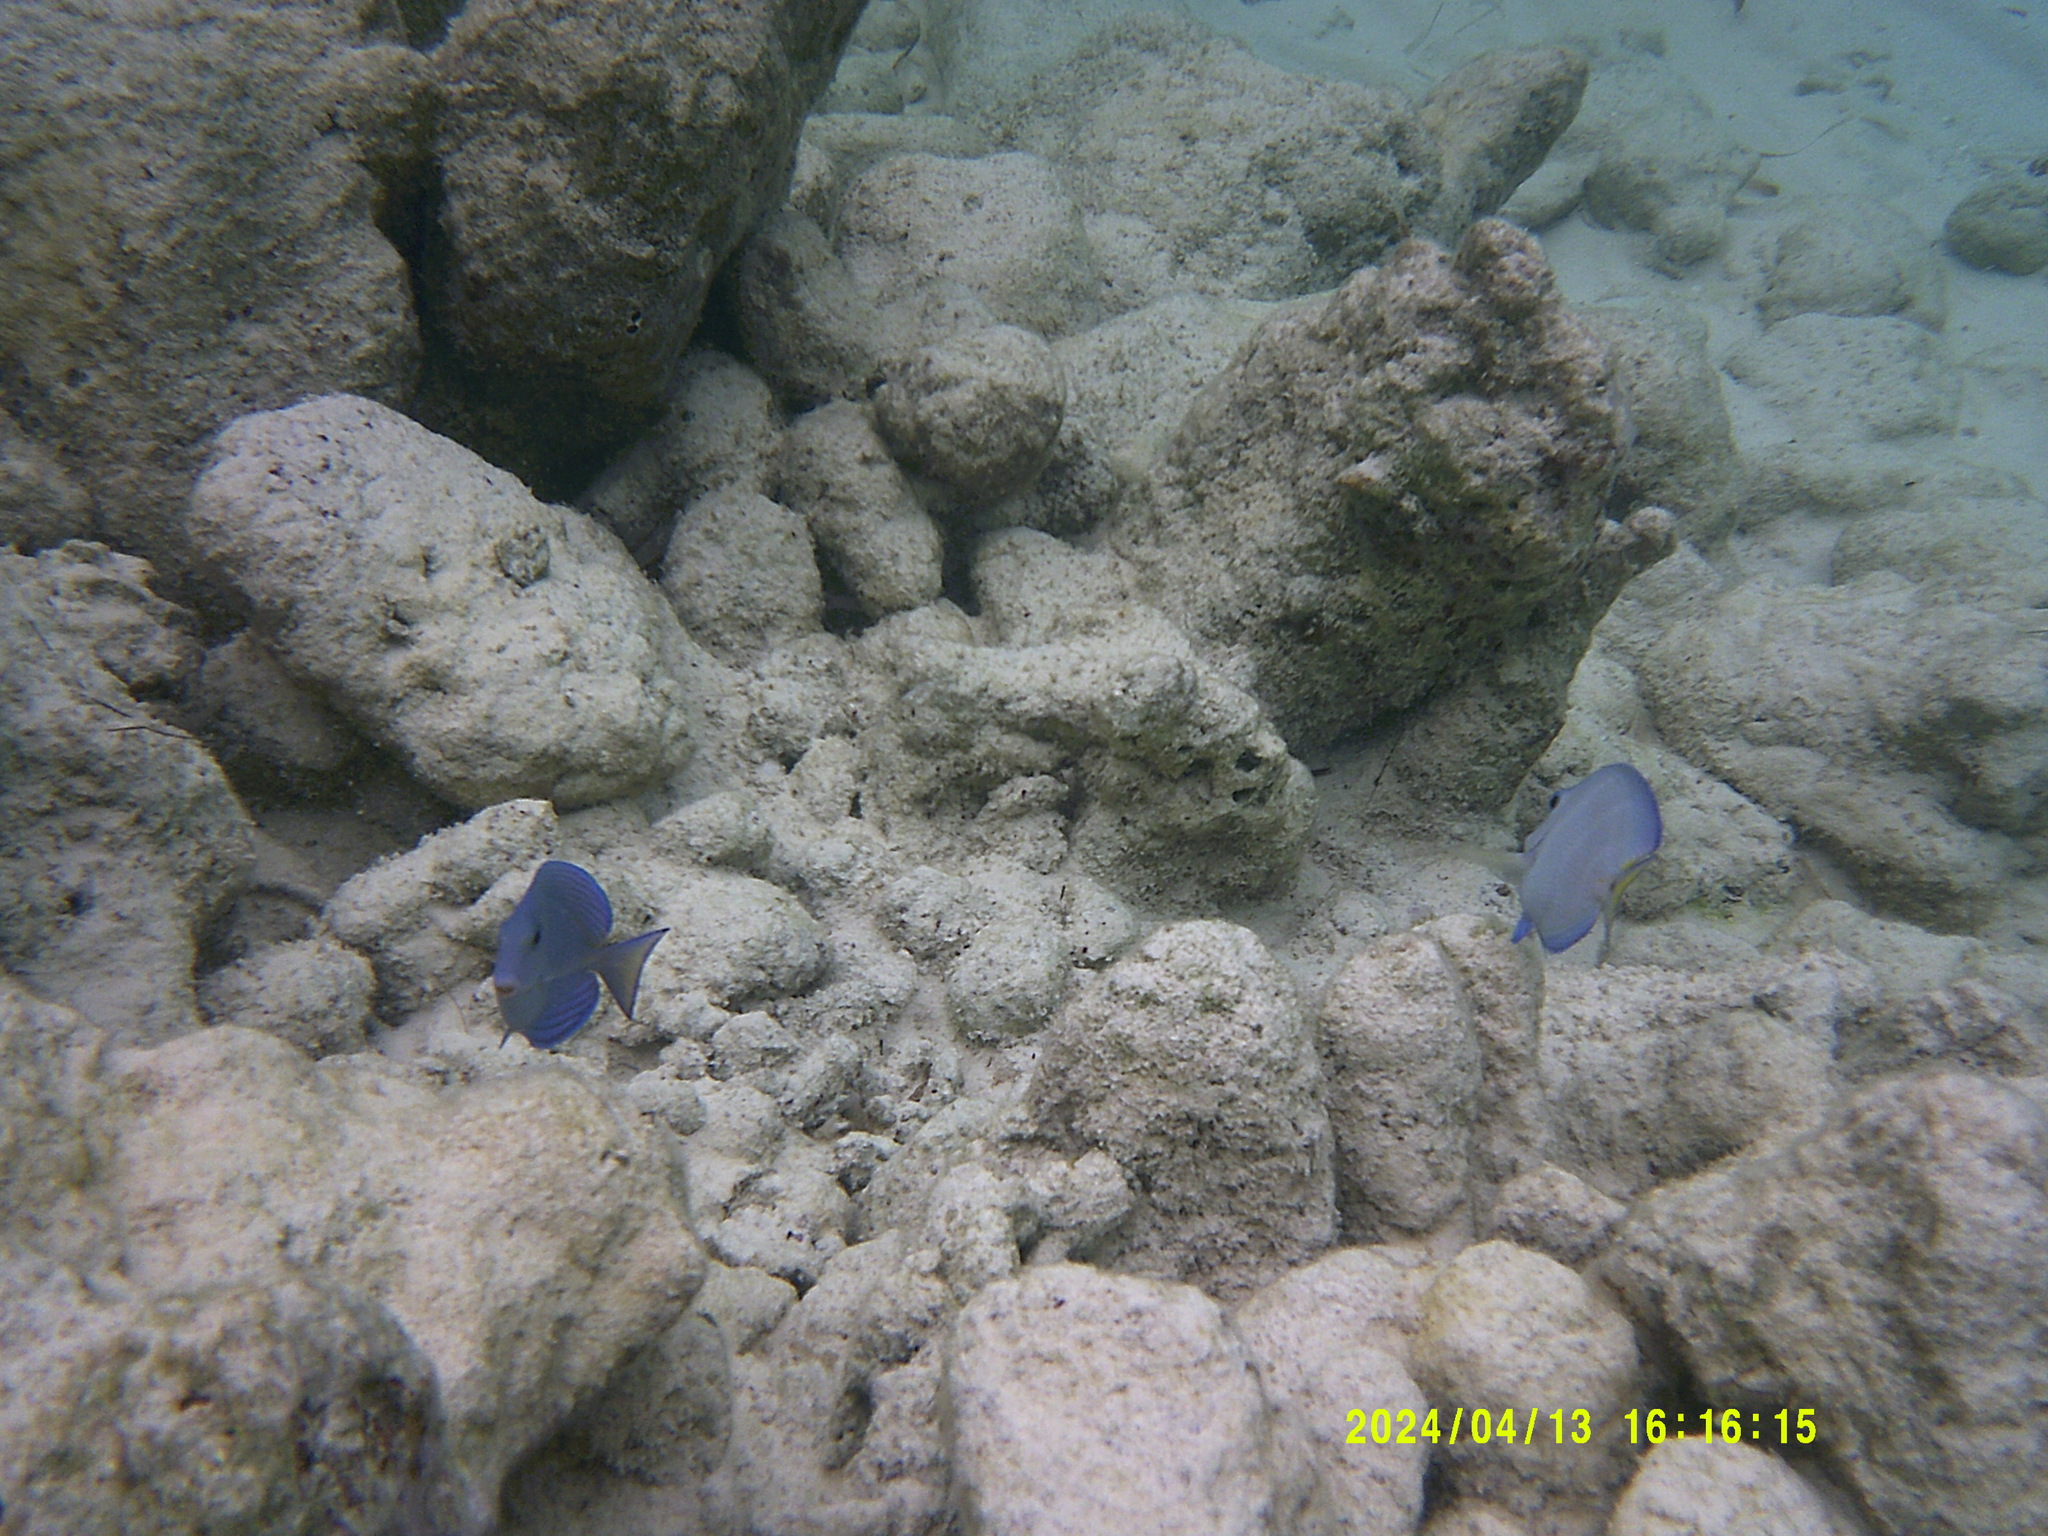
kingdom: Animalia
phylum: Chordata
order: Perciformes
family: Acanthuridae
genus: Acanthurus
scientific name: Acanthurus coeruleus
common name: Blue tang
